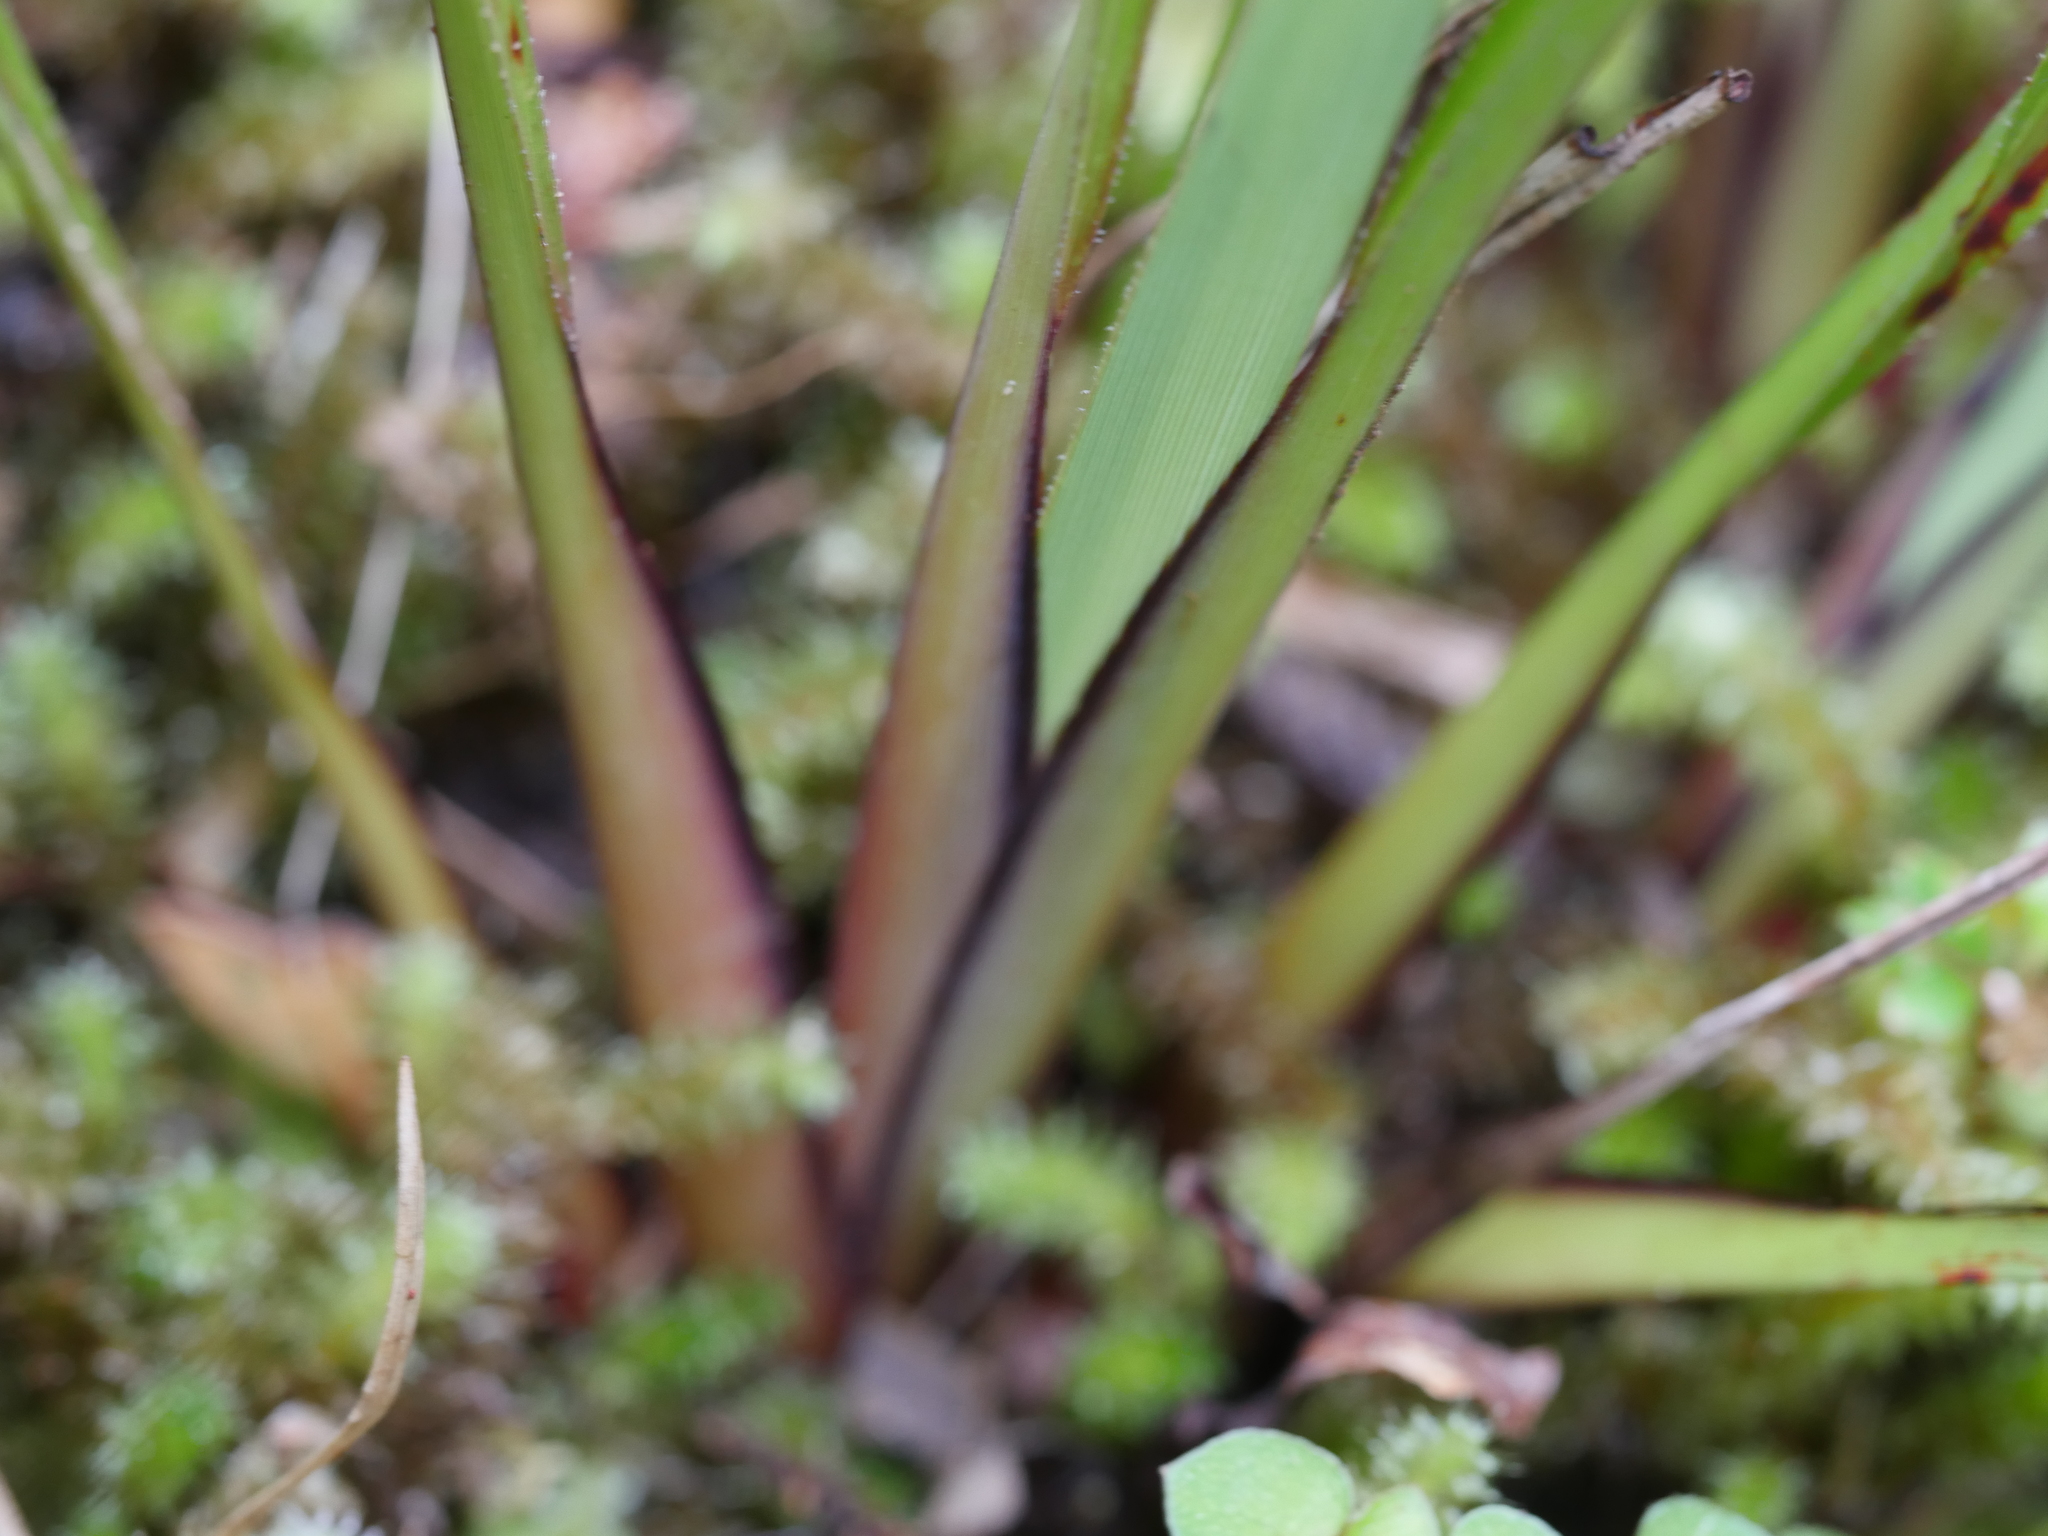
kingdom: Plantae
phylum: Tracheophyta
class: Liliopsida
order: Asparagales
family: Asphodelaceae
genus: Dianella
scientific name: Dianella nigra
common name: New zealand-blueberry
